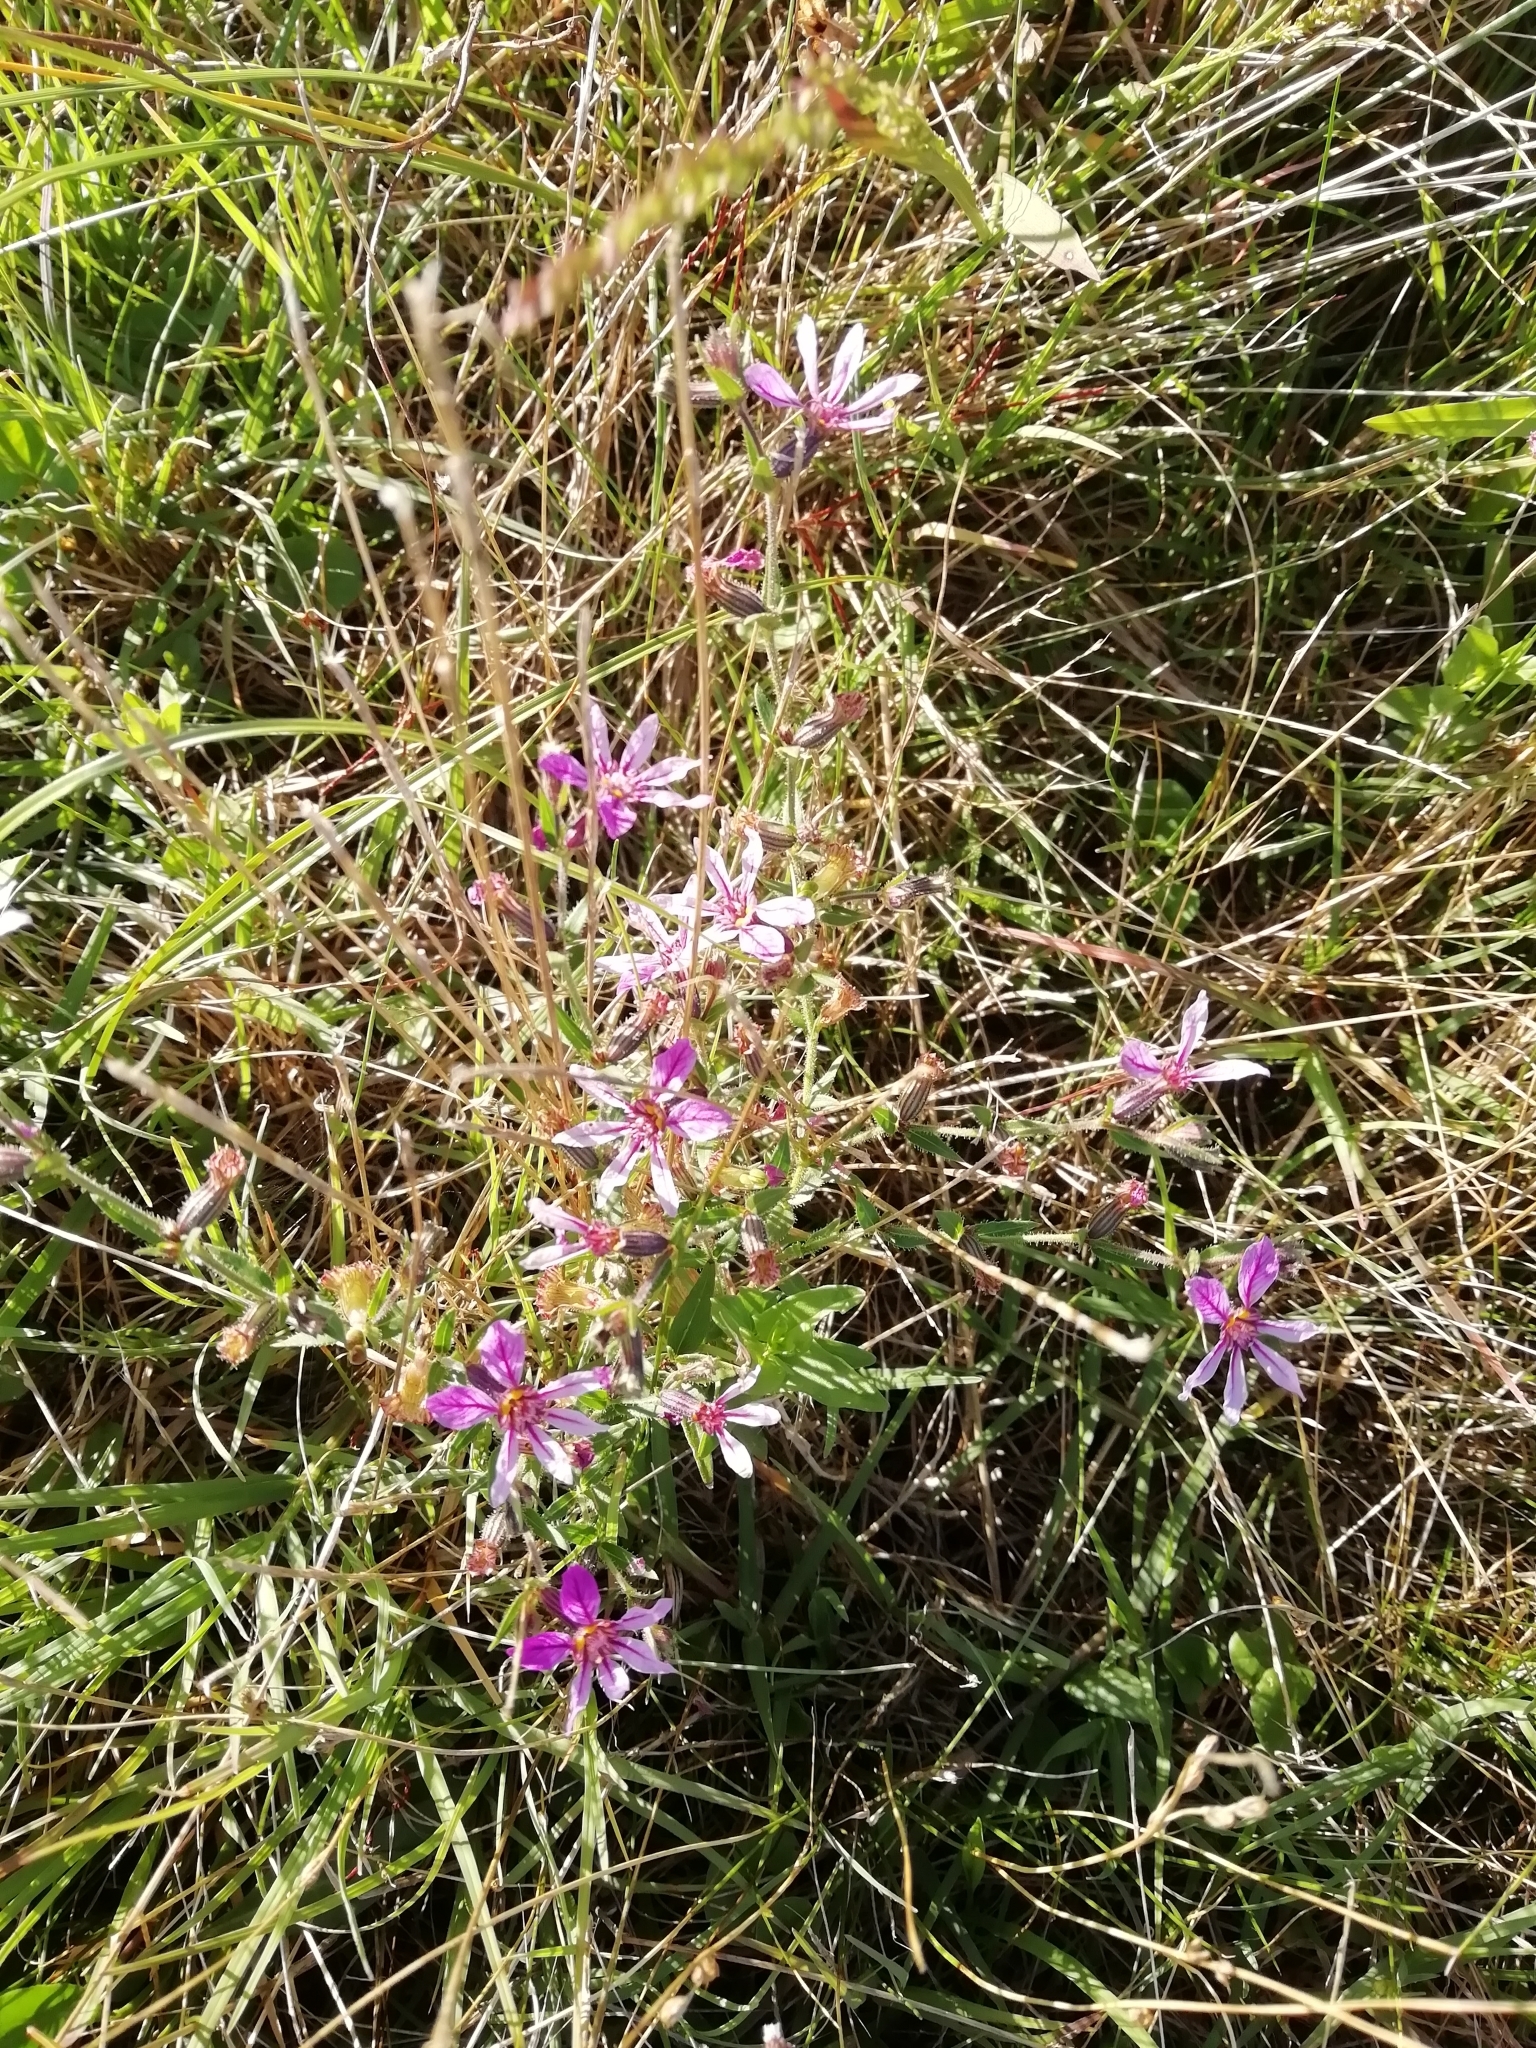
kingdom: Plantae
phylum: Tracheophyta
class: Magnoliopsida
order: Myrtales
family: Lythraceae
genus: Cuphea
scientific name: Cuphea glutinosa
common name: Sticky waxweed
